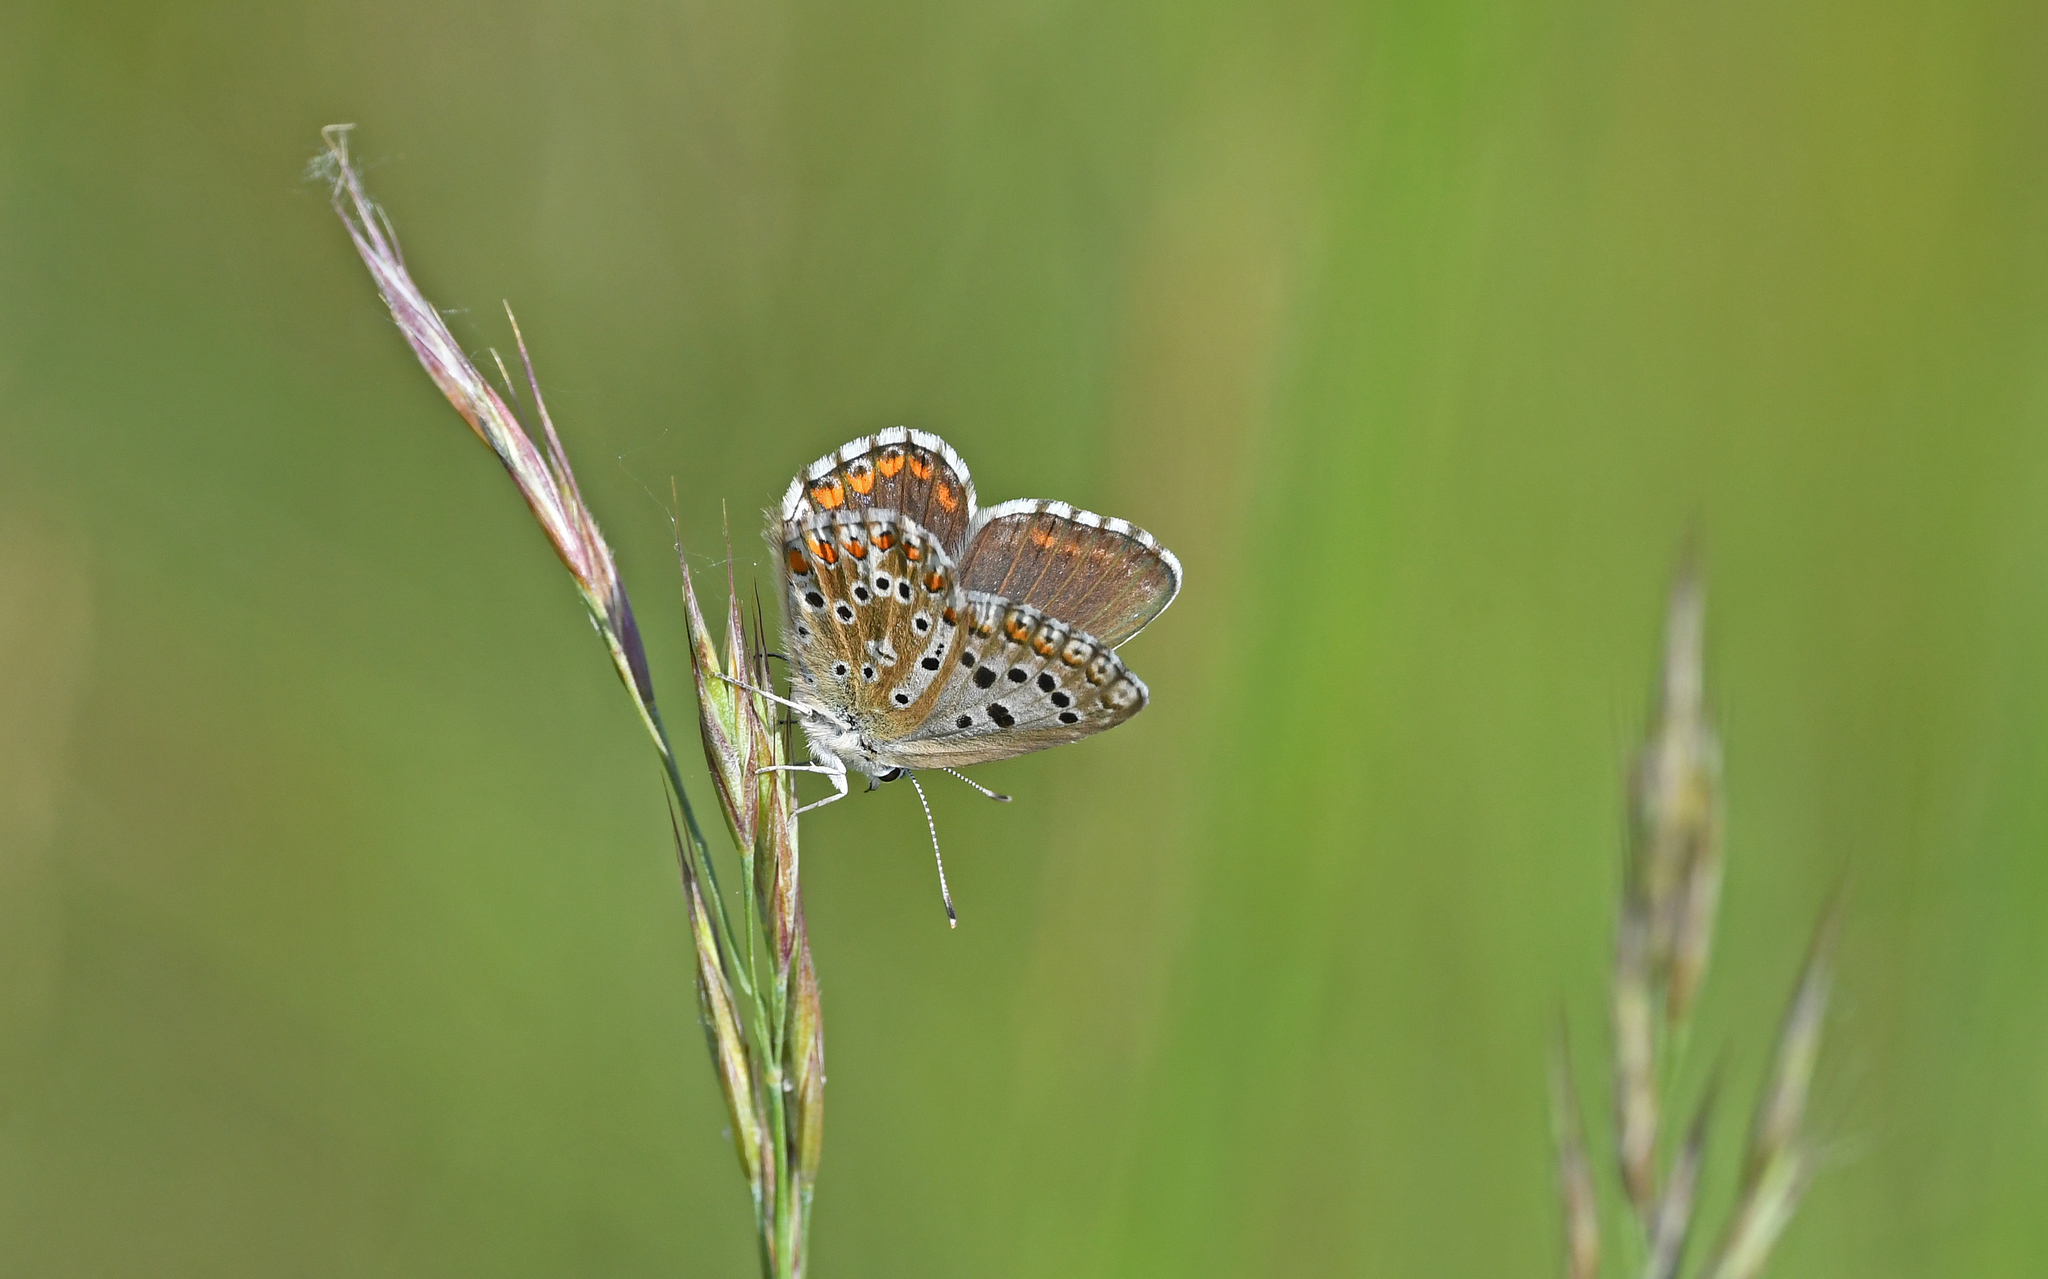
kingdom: Animalia
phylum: Arthropoda
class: Insecta
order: Lepidoptera
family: Lycaenidae
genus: Lysandra
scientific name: Lysandra bellargus
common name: Adonis blue
